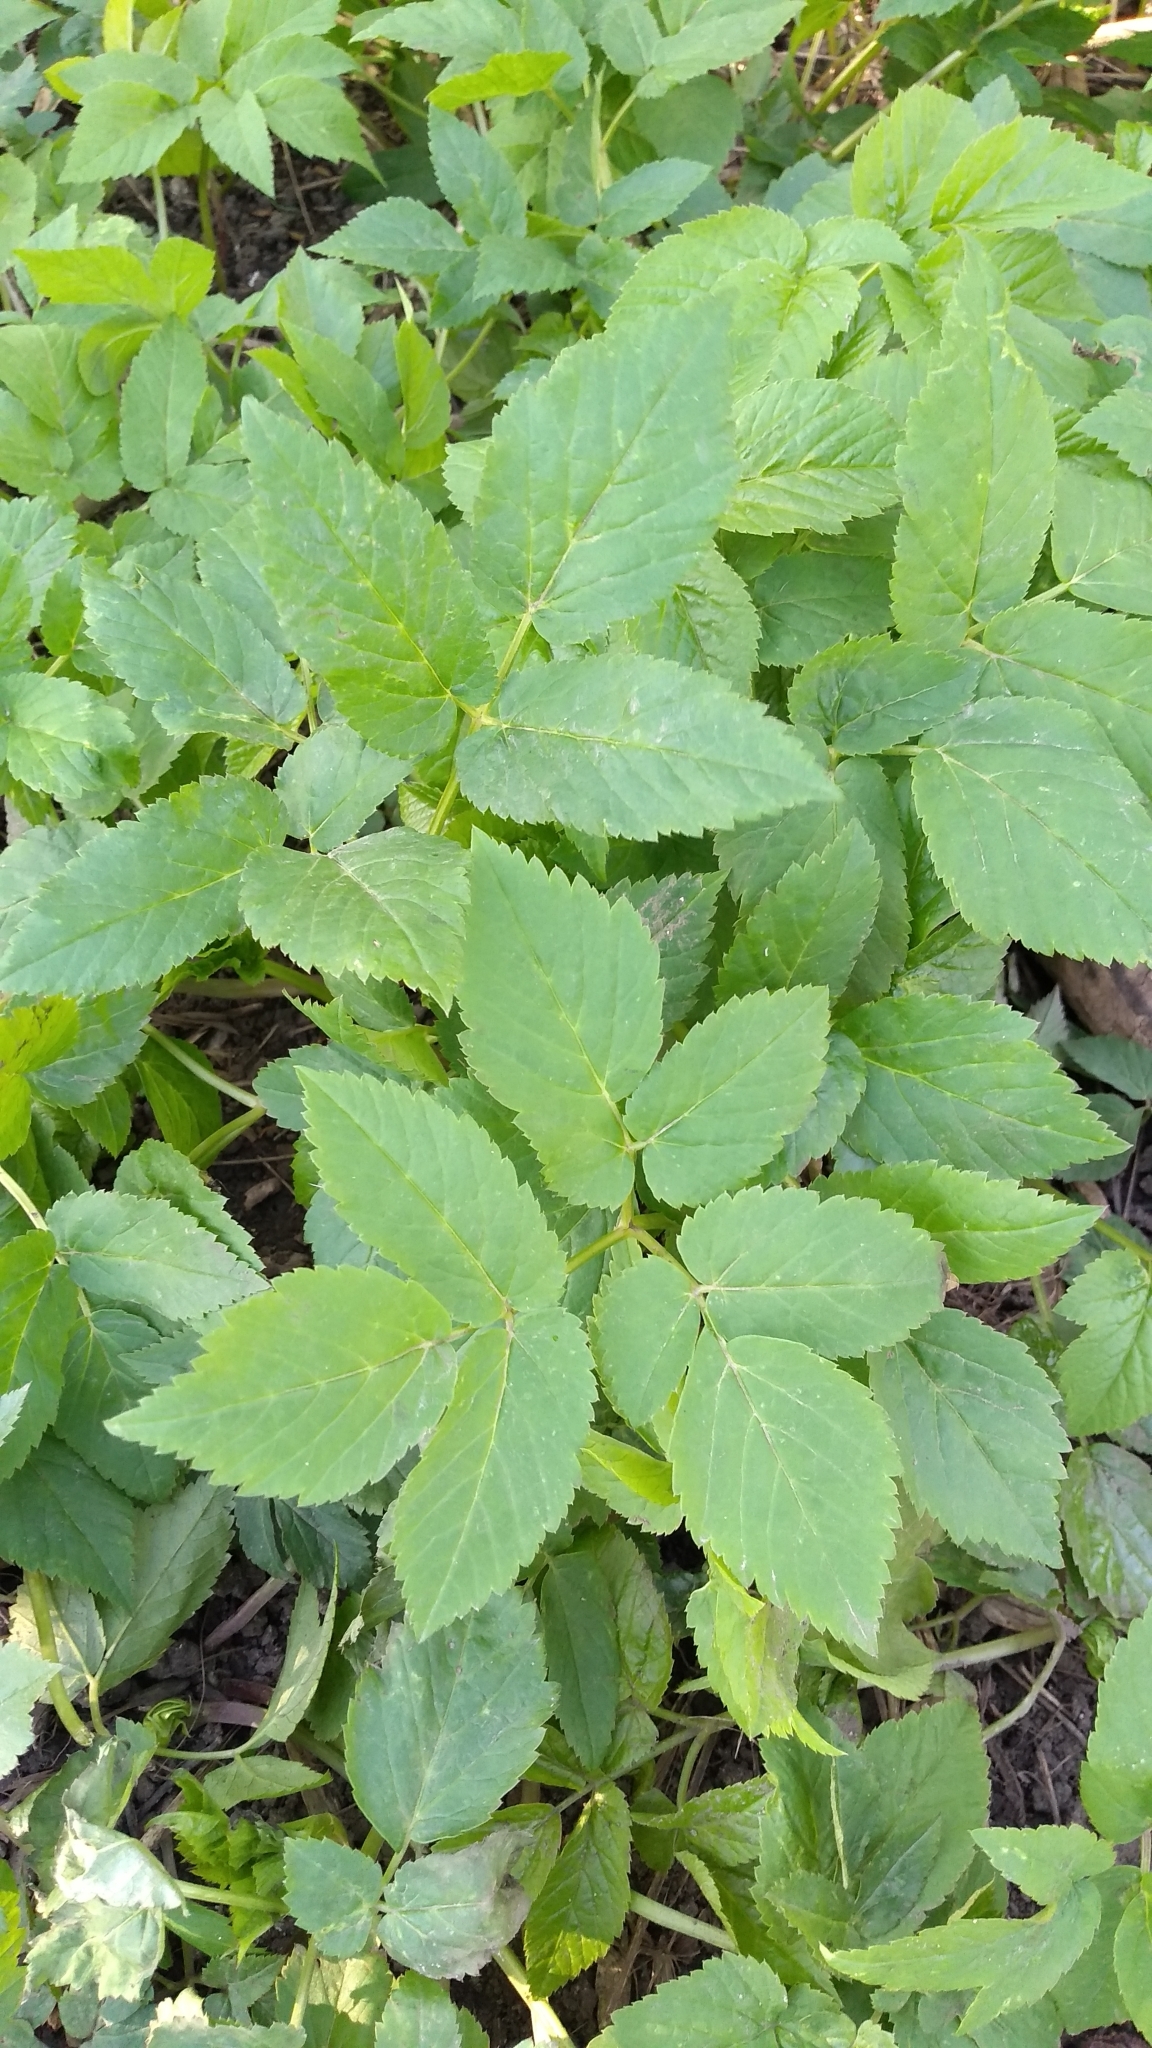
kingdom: Plantae
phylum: Tracheophyta
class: Magnoliopsida
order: Apiales
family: Apiaceae
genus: Aegopodium
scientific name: Aegopodium podagraria
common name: Ground-elder
